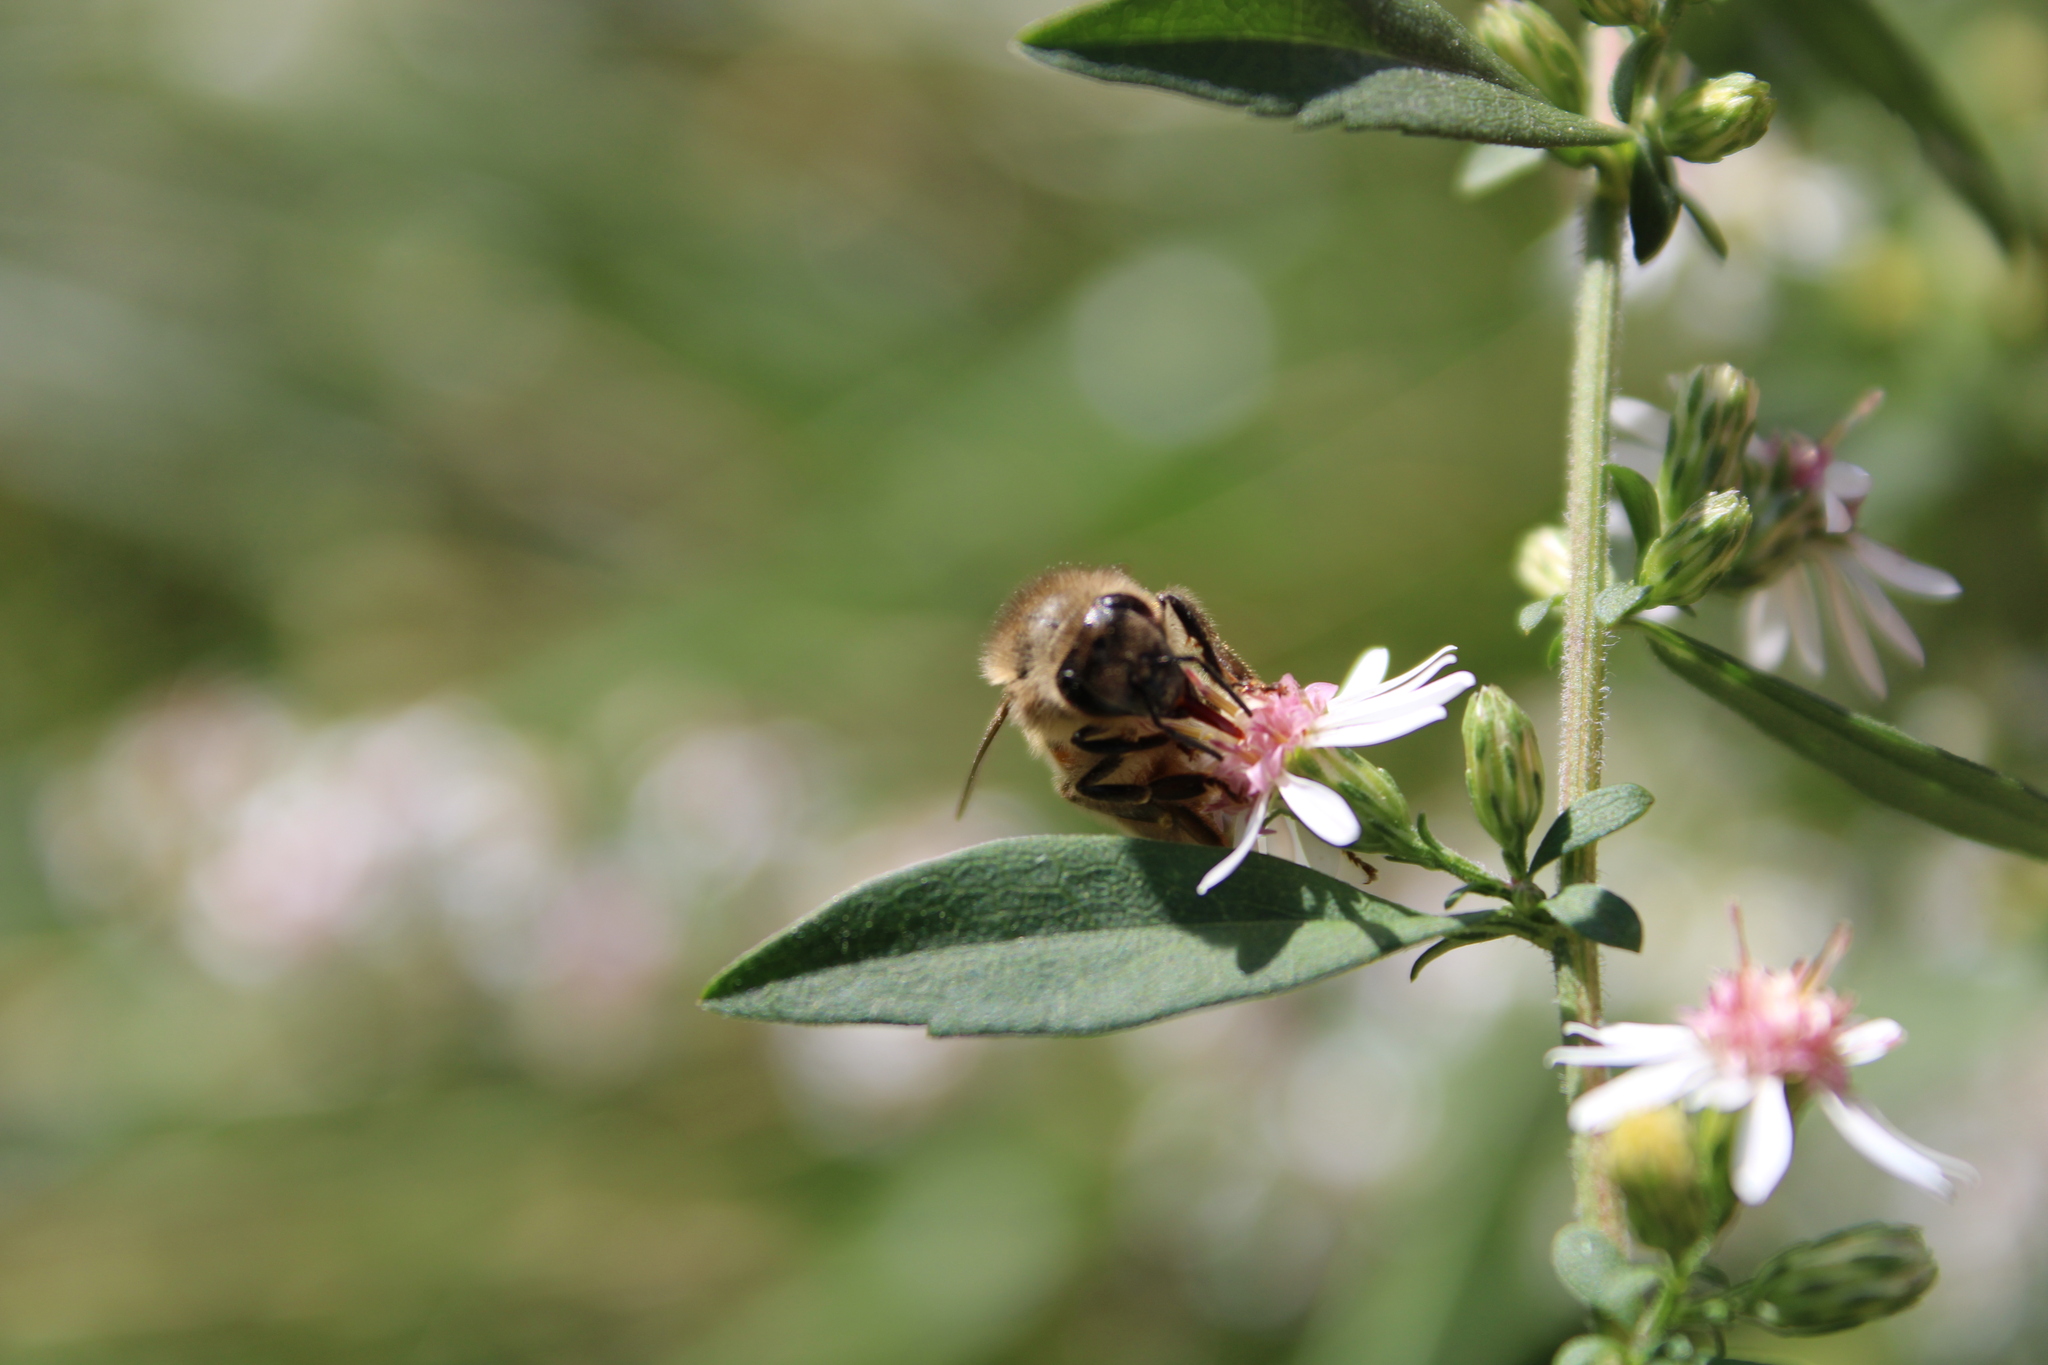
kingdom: Animalia
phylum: Arthropoda
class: Insecta
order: Hymenoptera
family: Apidae
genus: Apis
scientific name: Apis mellifera
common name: Honey bee
